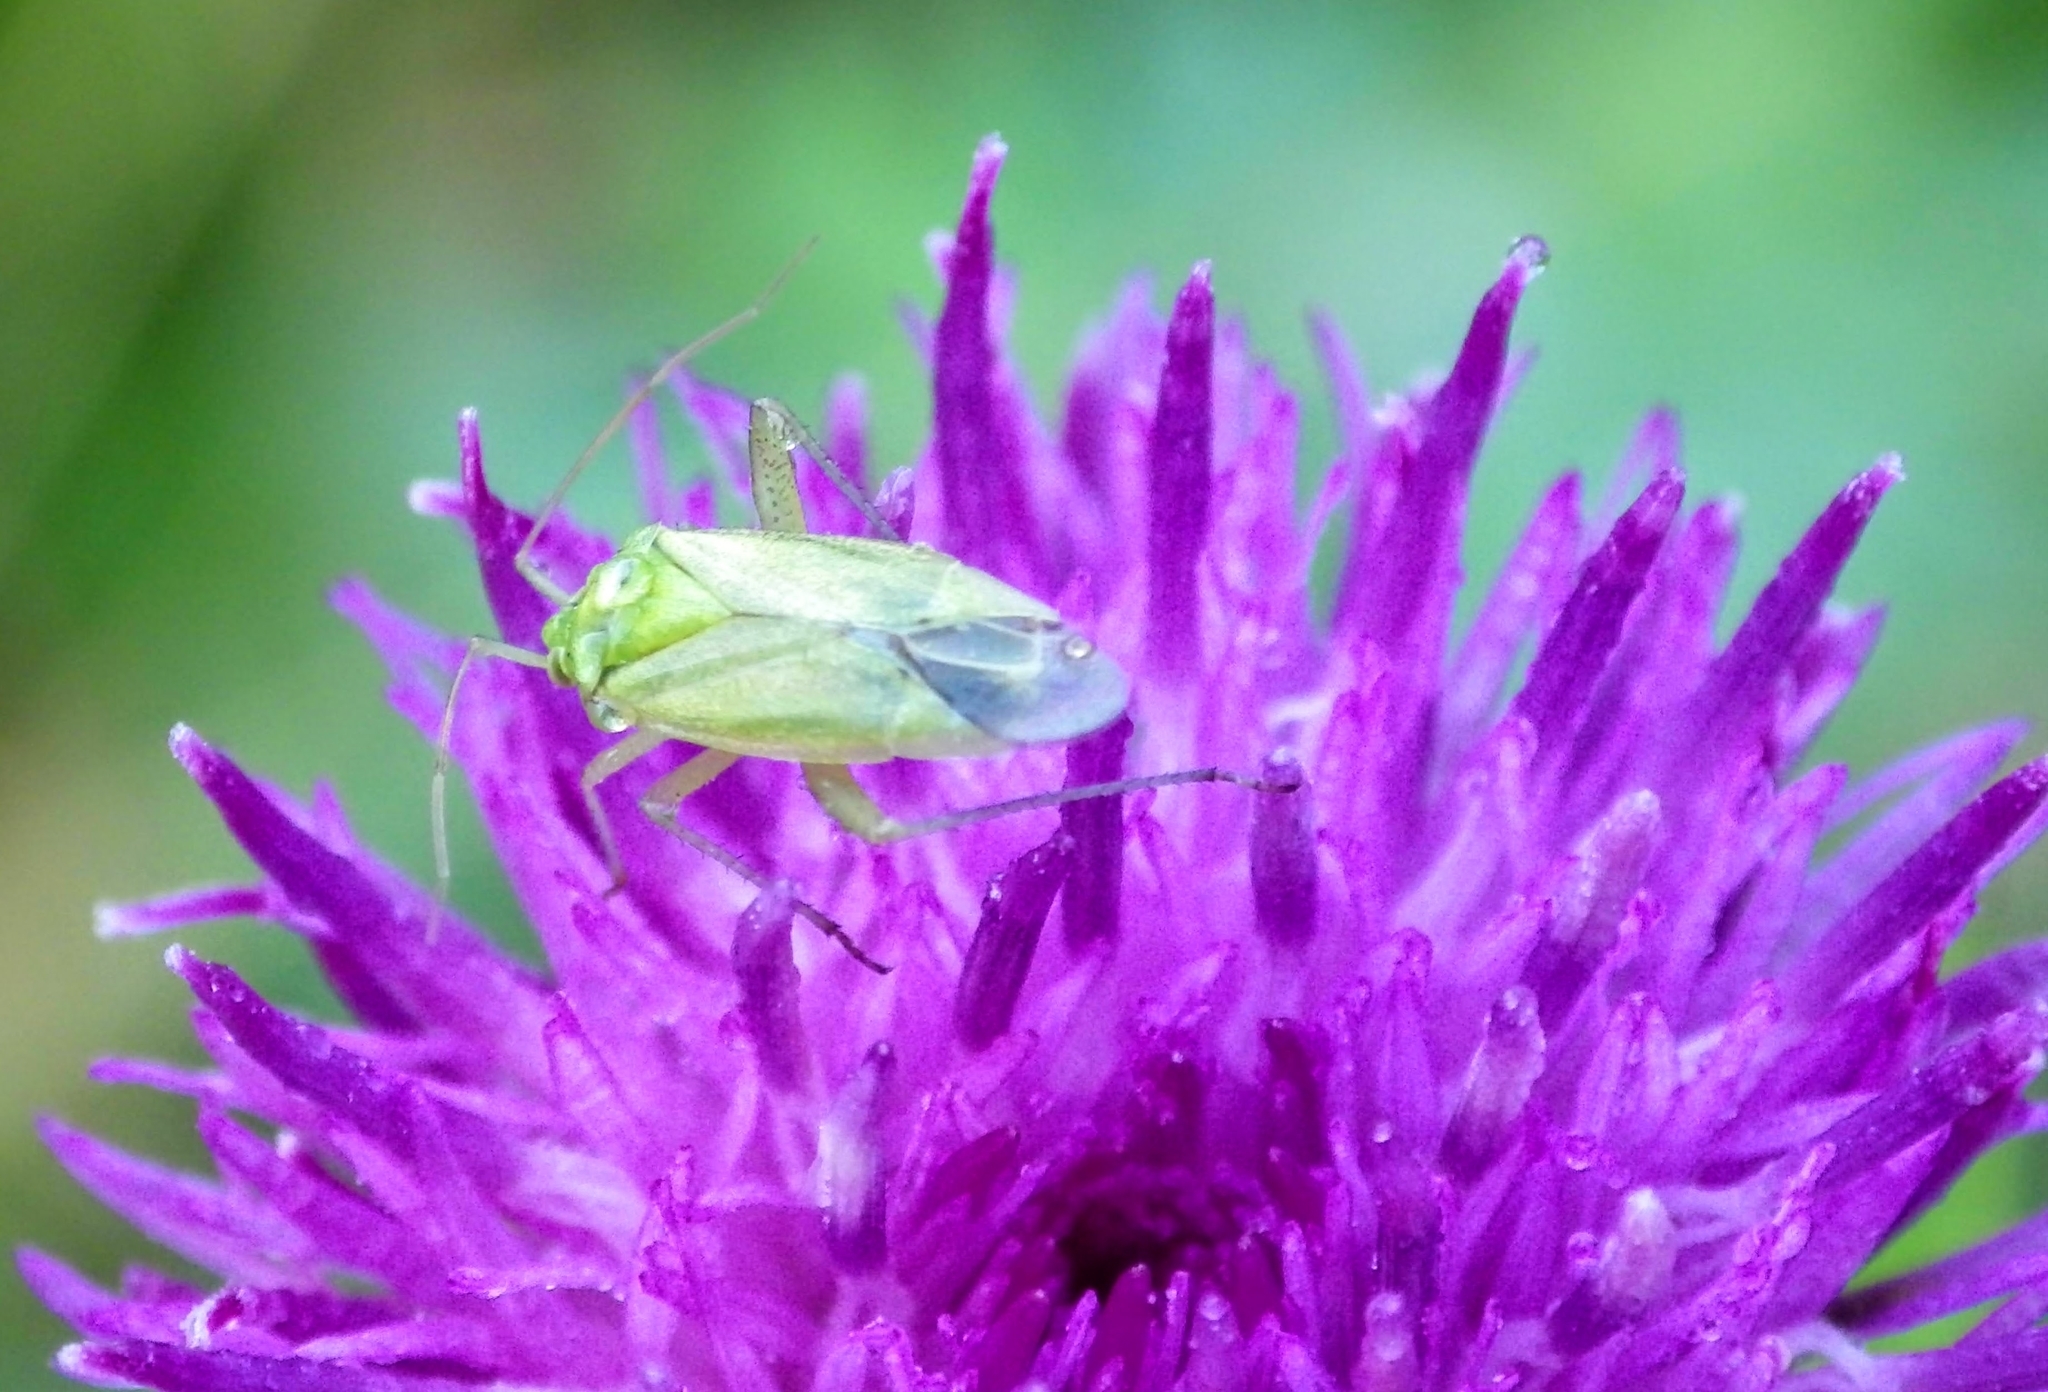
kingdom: Animalia
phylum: Arthropoda
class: Insecta
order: Hemiptera
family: Miridae
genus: Closterotomus
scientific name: Closterotomus norvegicus
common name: Plant bug
